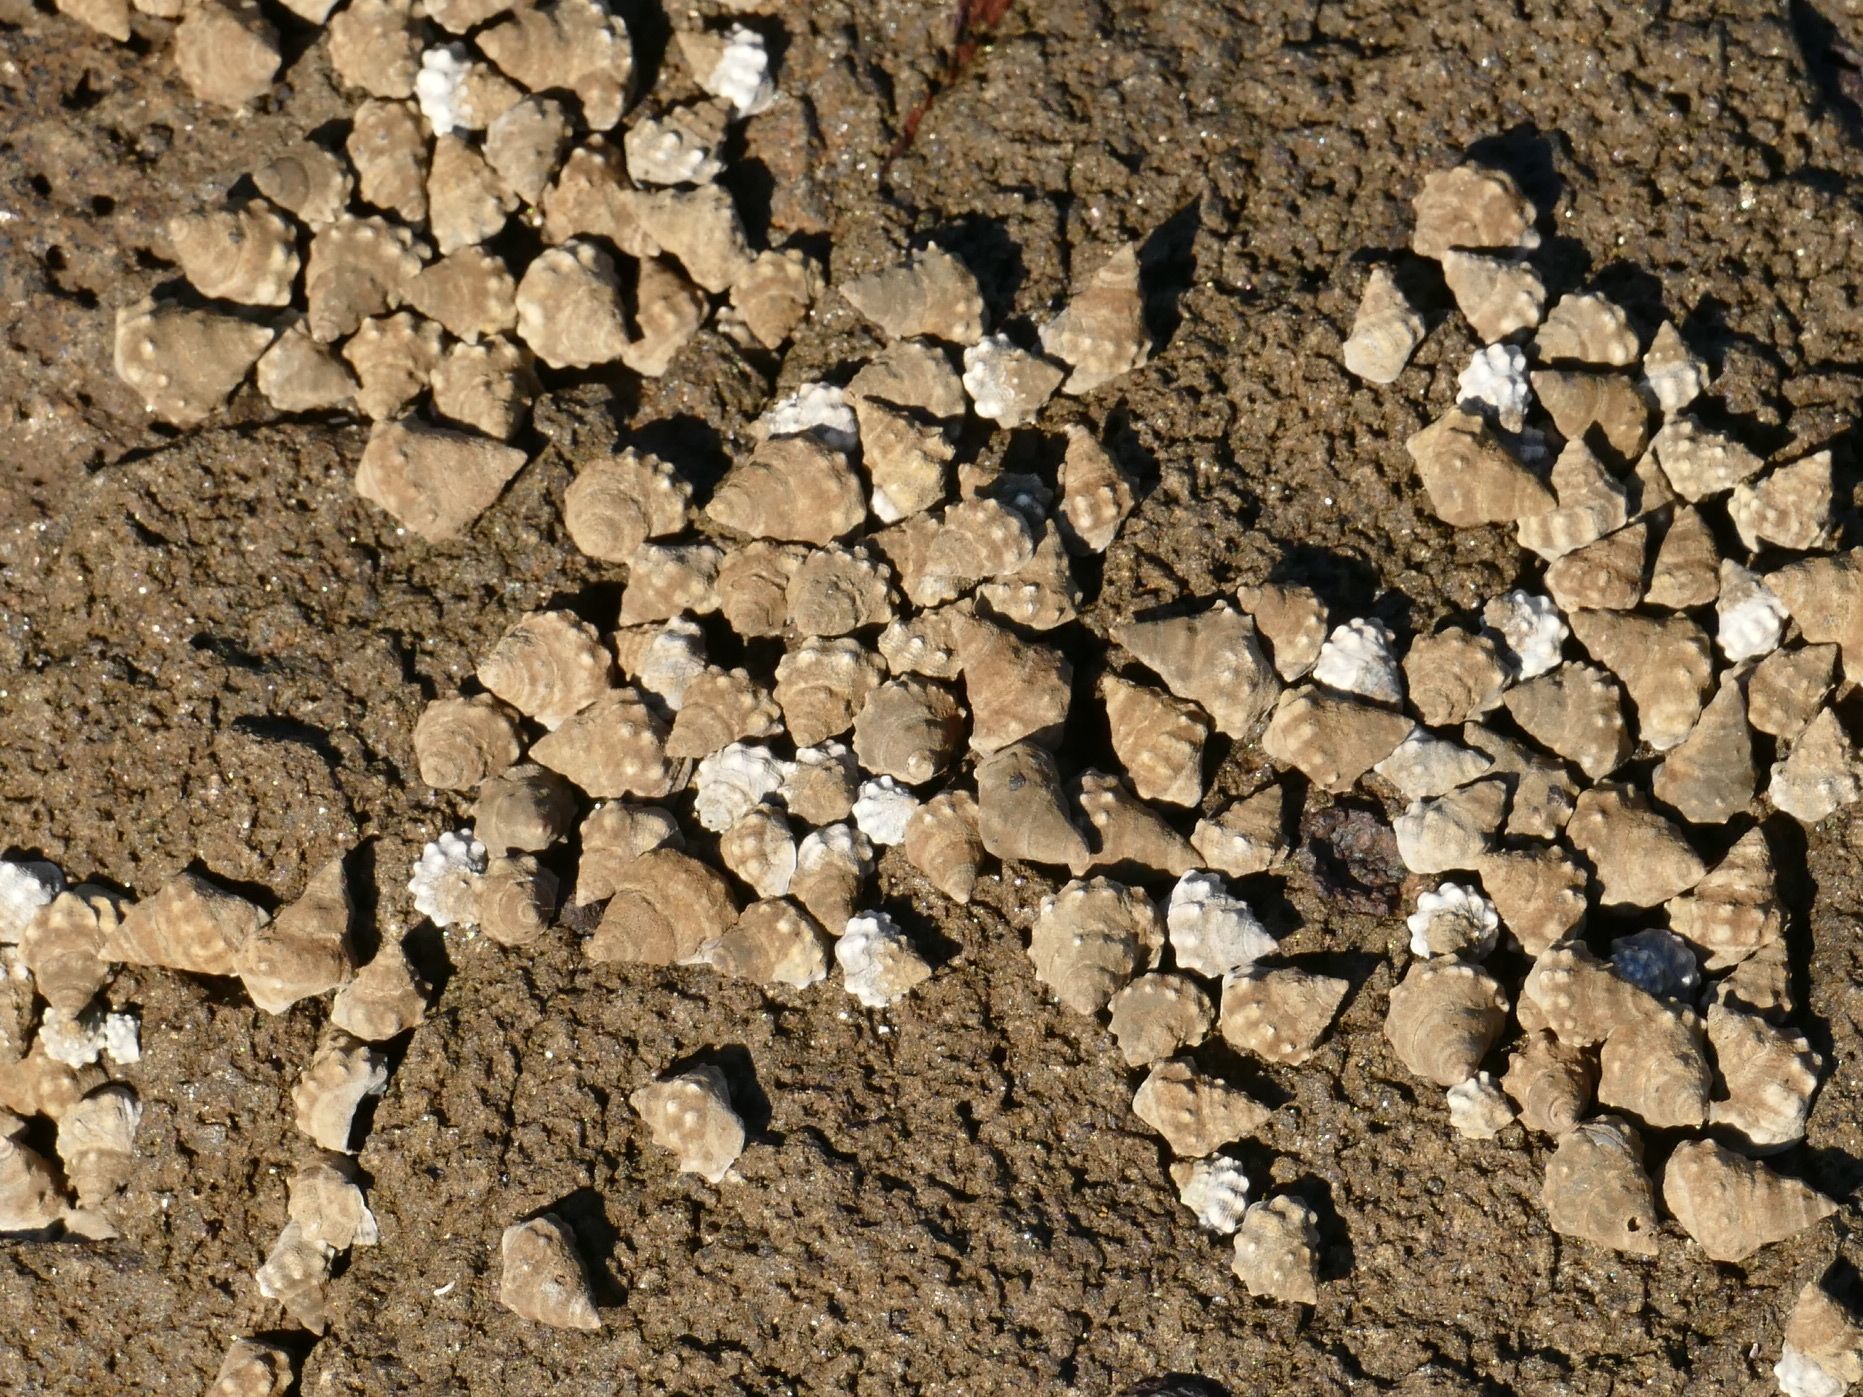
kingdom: Animalia
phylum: Mollusca
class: Gastropoda
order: Littorinimorpha
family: Littorinidae
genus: Nodilittorina
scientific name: Nodilittorina pyramidalis
